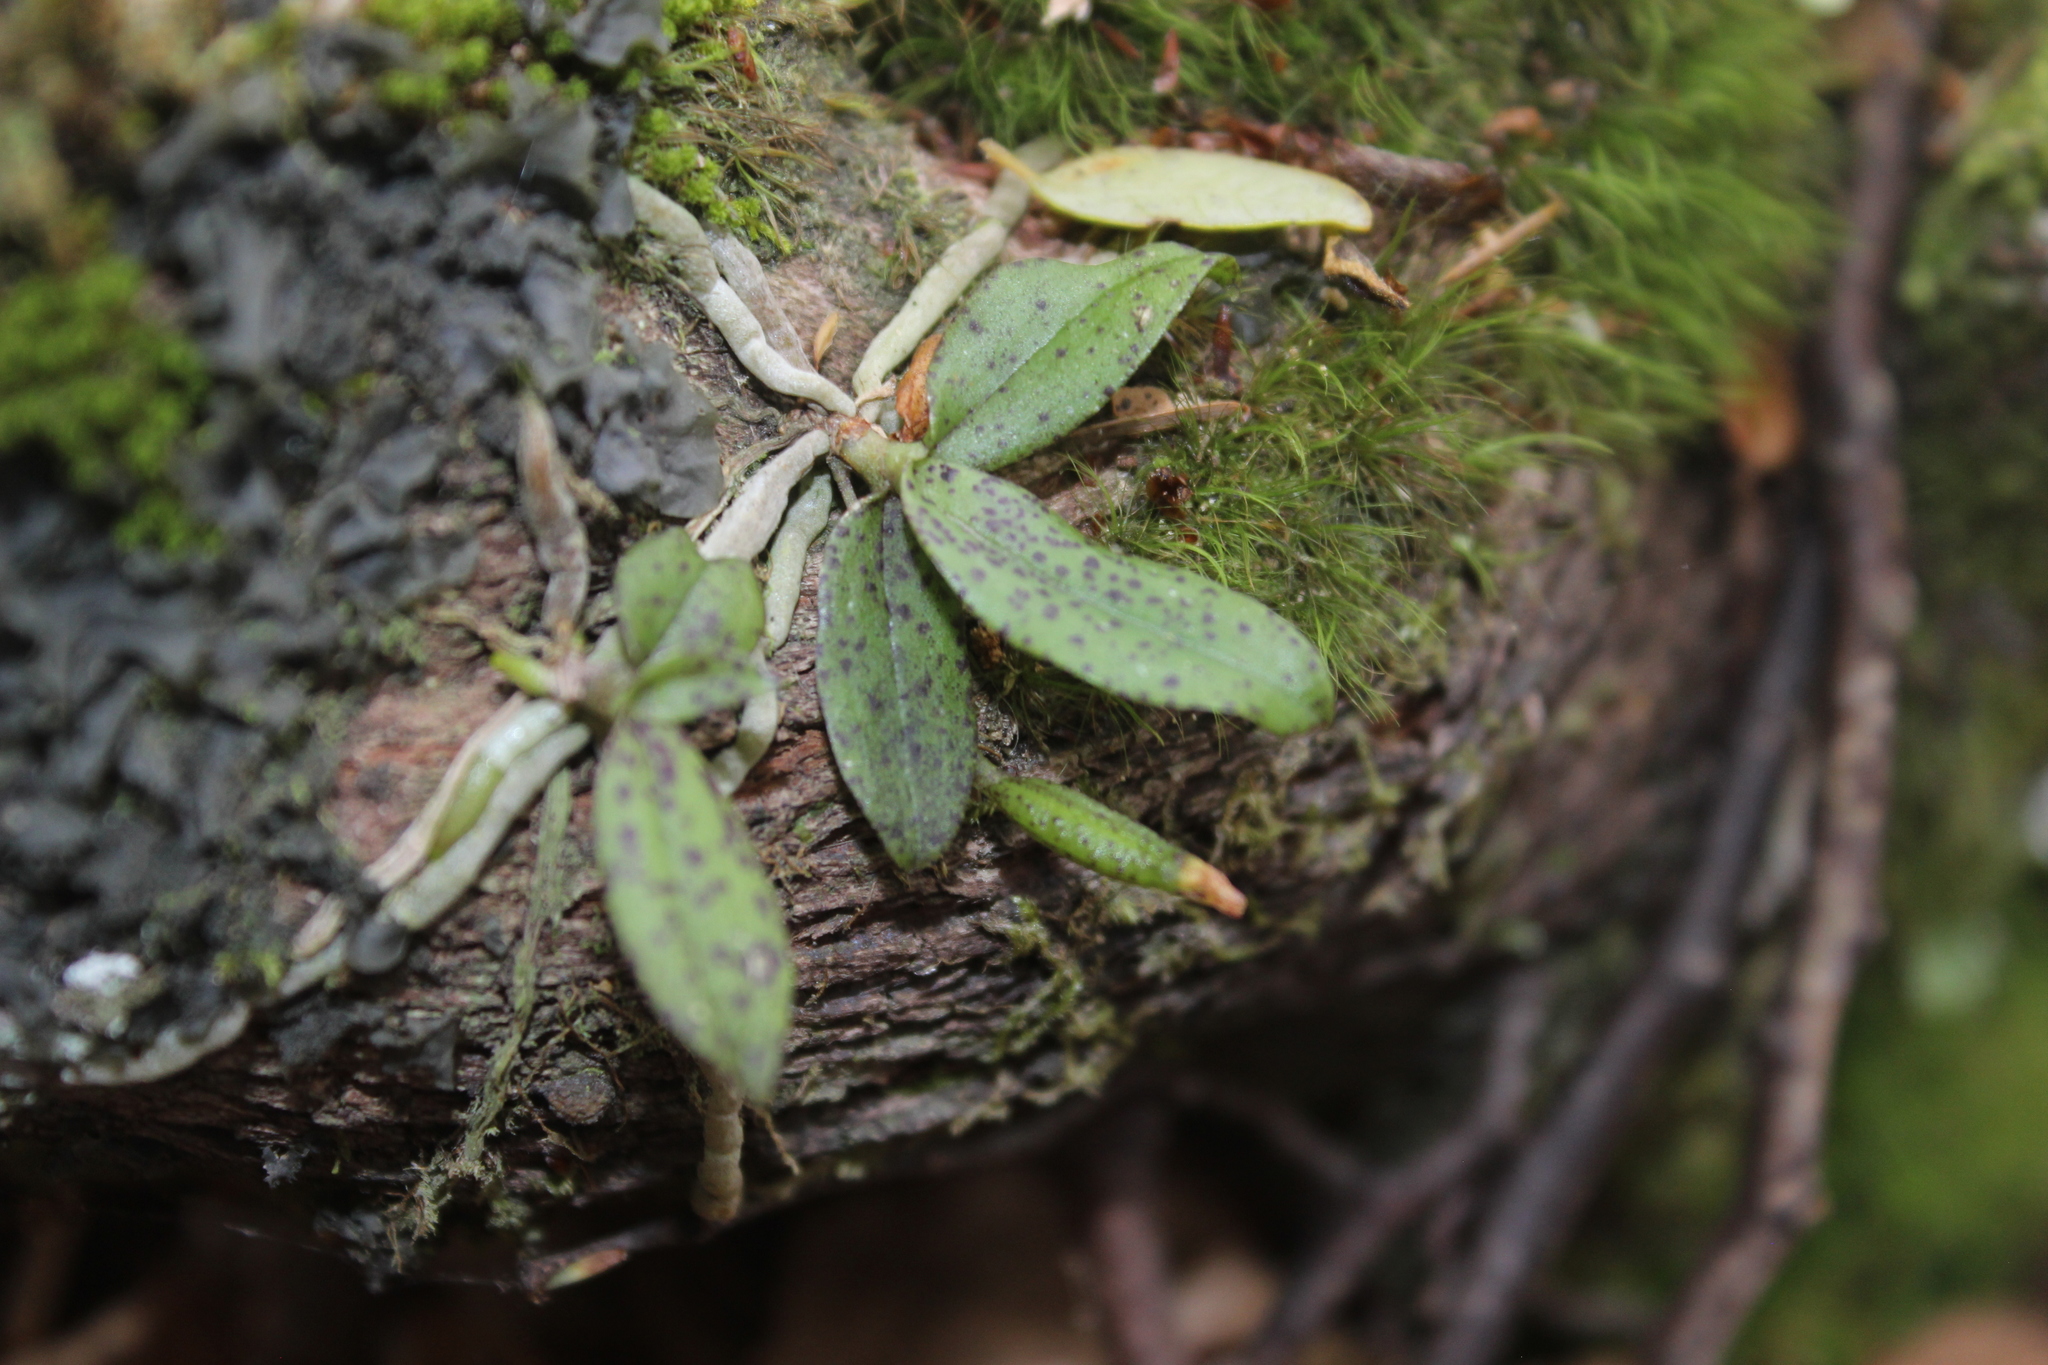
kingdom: Plantae
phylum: Tracheophyta
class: Liliopsida
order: Asparagales
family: Orchidaceae
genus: Drymoanthus
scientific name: Drymoanthus flavus
